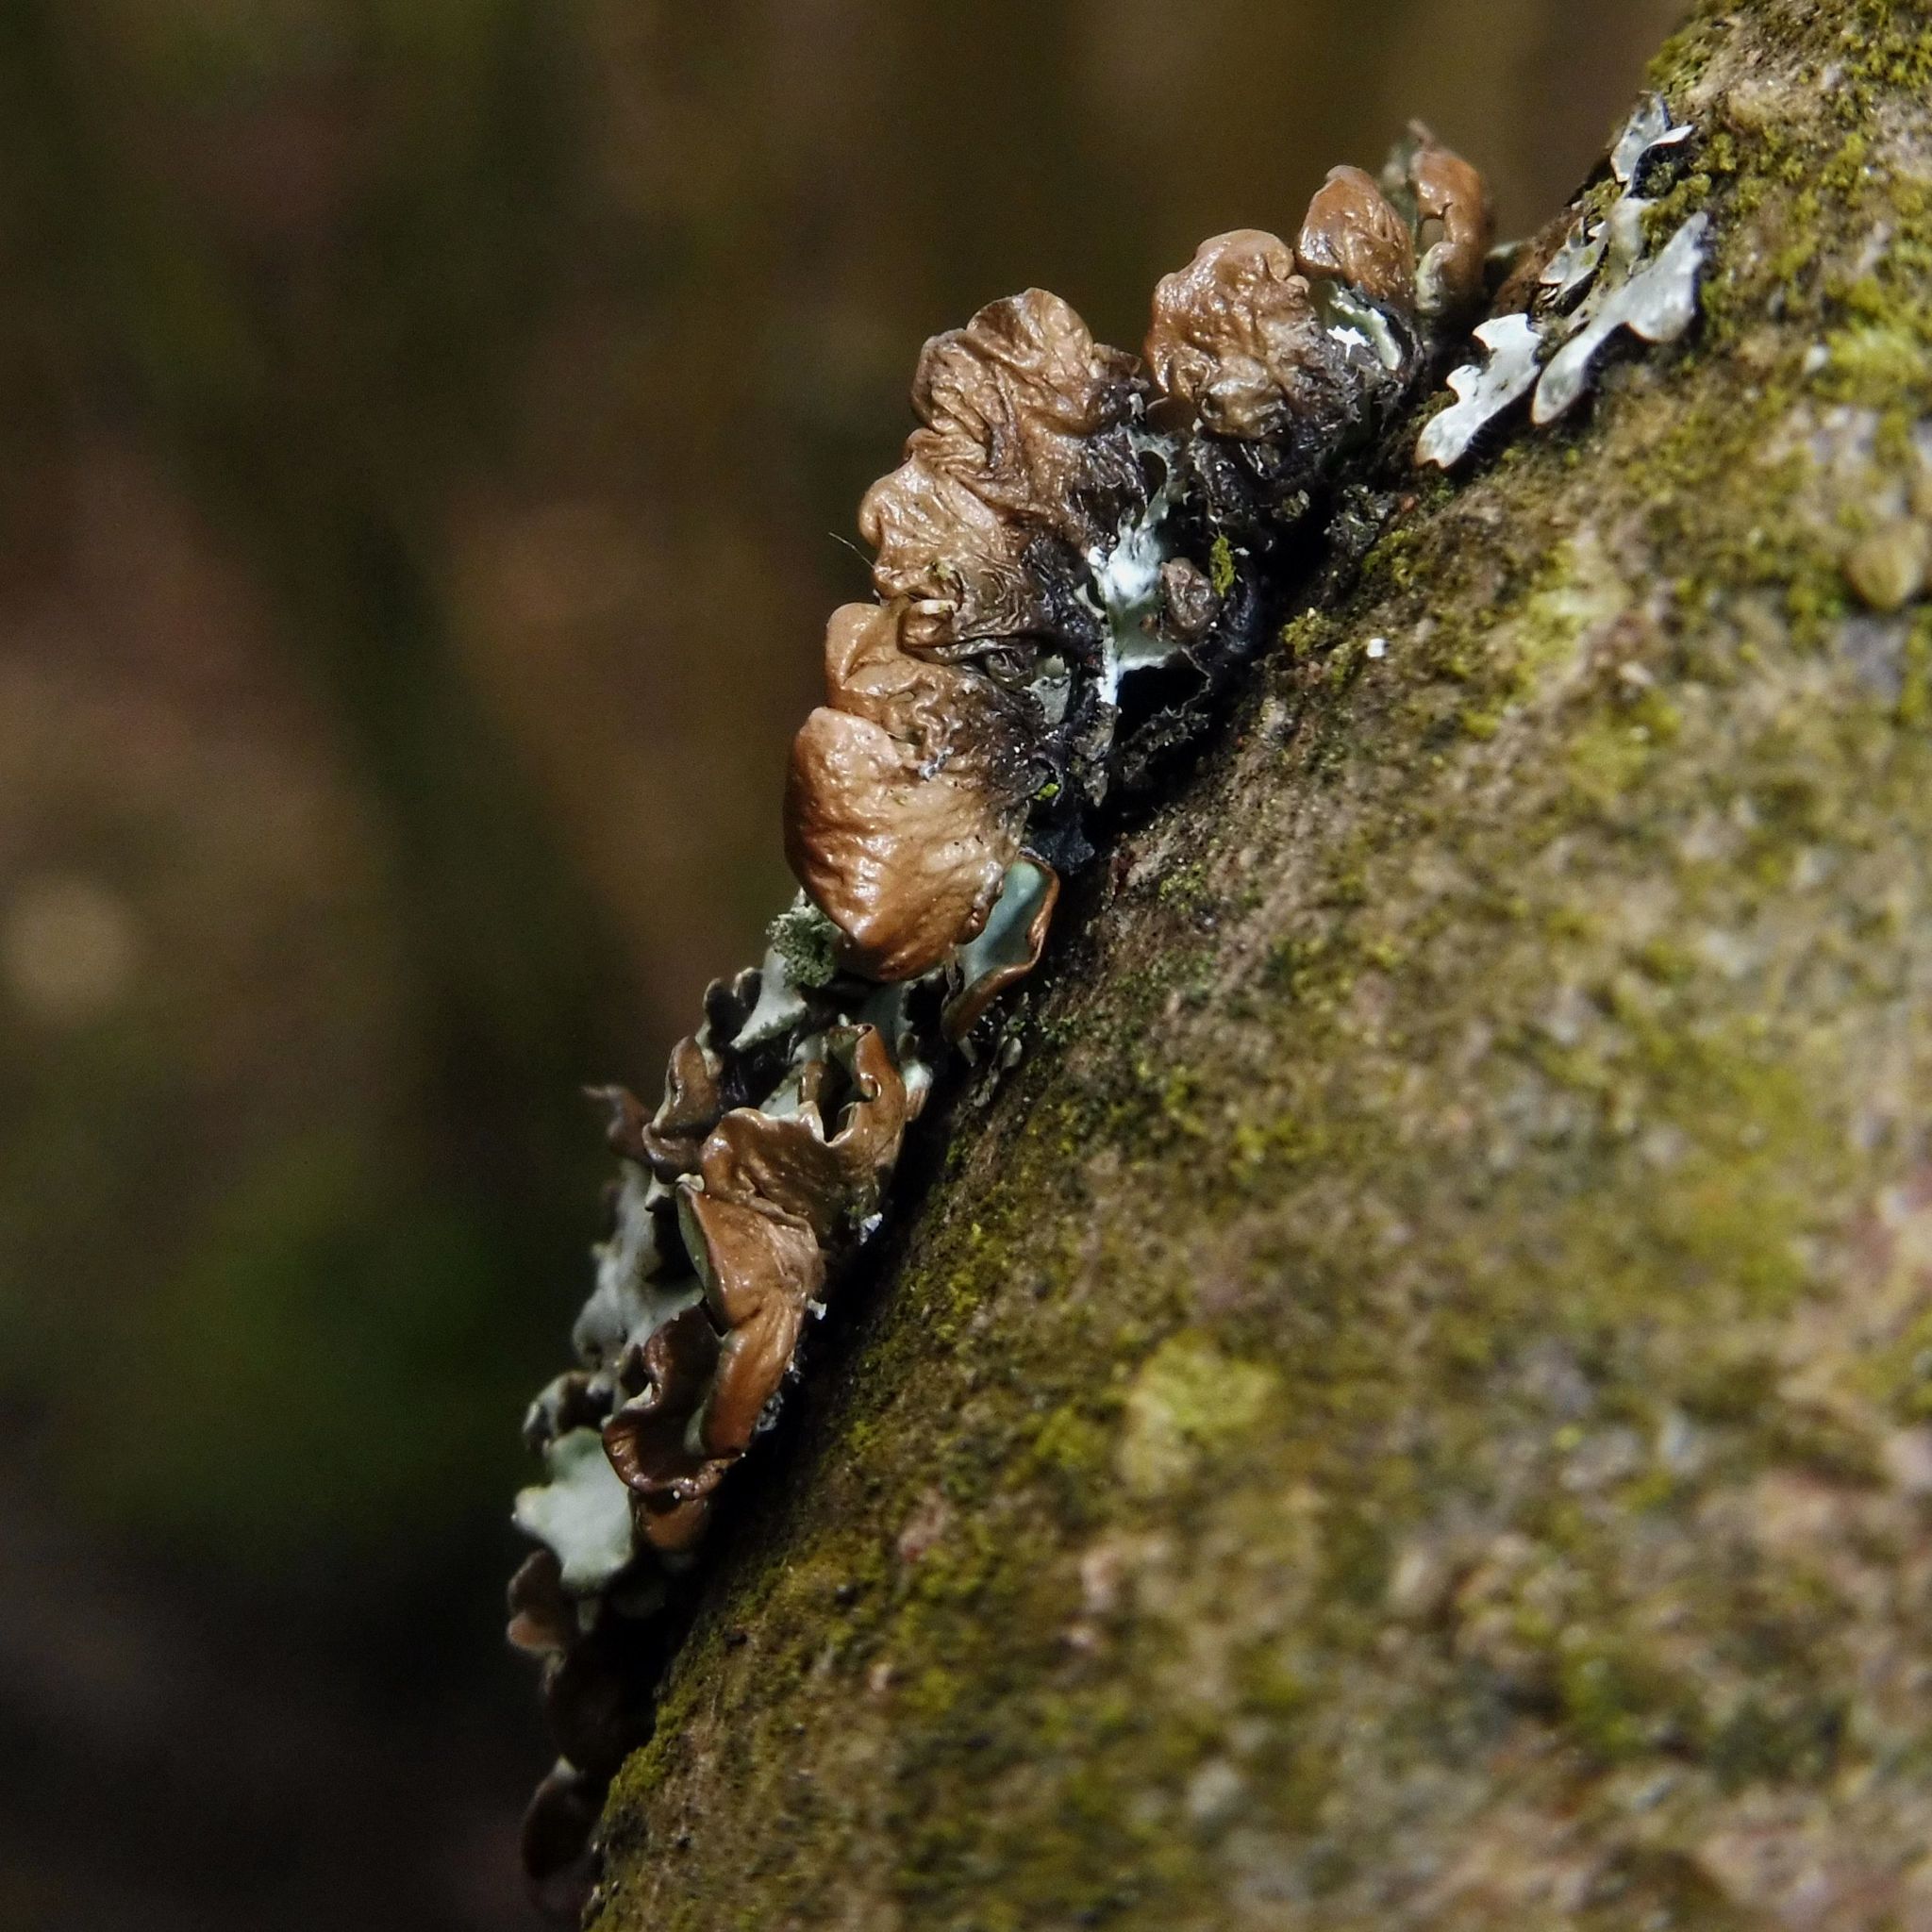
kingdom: Fungi
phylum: Ascomycota
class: Lecanoromycetes
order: Lecanorales
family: Parmeliaceae
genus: Hypogymnia
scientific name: Hypogymnia physodes
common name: Dark crottle
